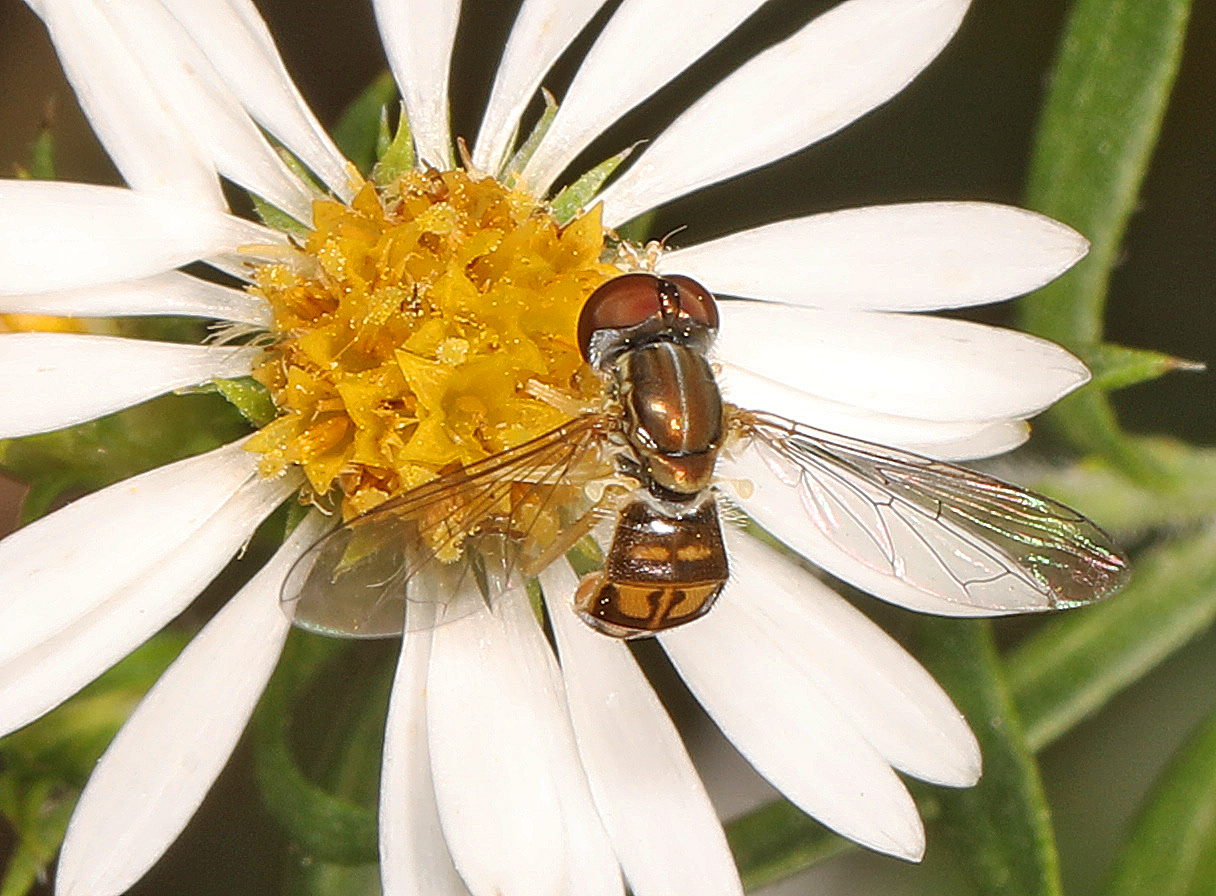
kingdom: Animalia
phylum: Arthropoda
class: Insecta
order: Diptera
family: Syrphidae
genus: Toxomerus
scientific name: Toxomerus marginatus
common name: Syrphid fly
